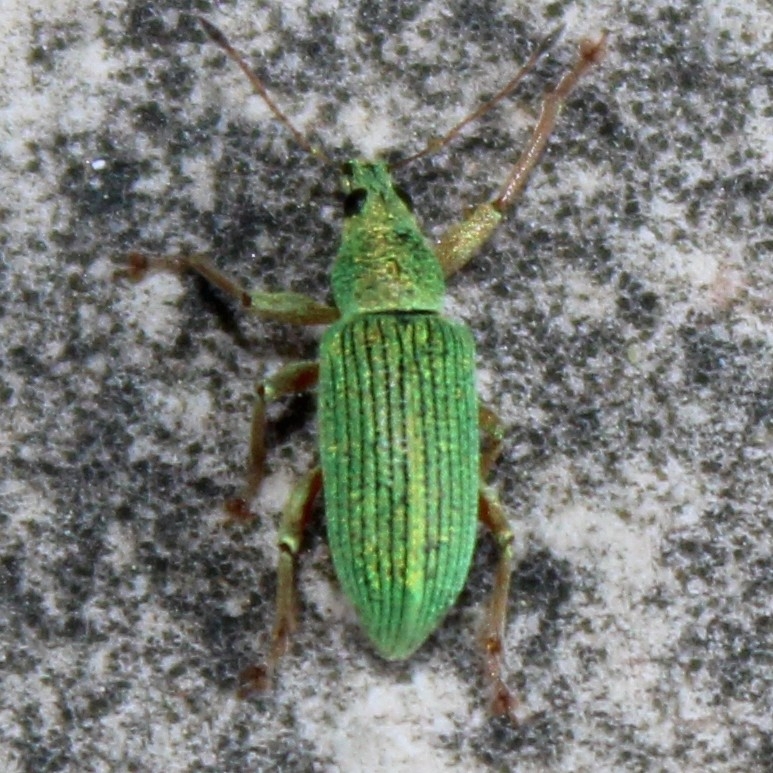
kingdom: Animalia
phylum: Arthropoda
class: Insecta
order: Coleoptera
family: Curculionidae
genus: Polydrusus
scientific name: Polydrusus formosus
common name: Weevil
